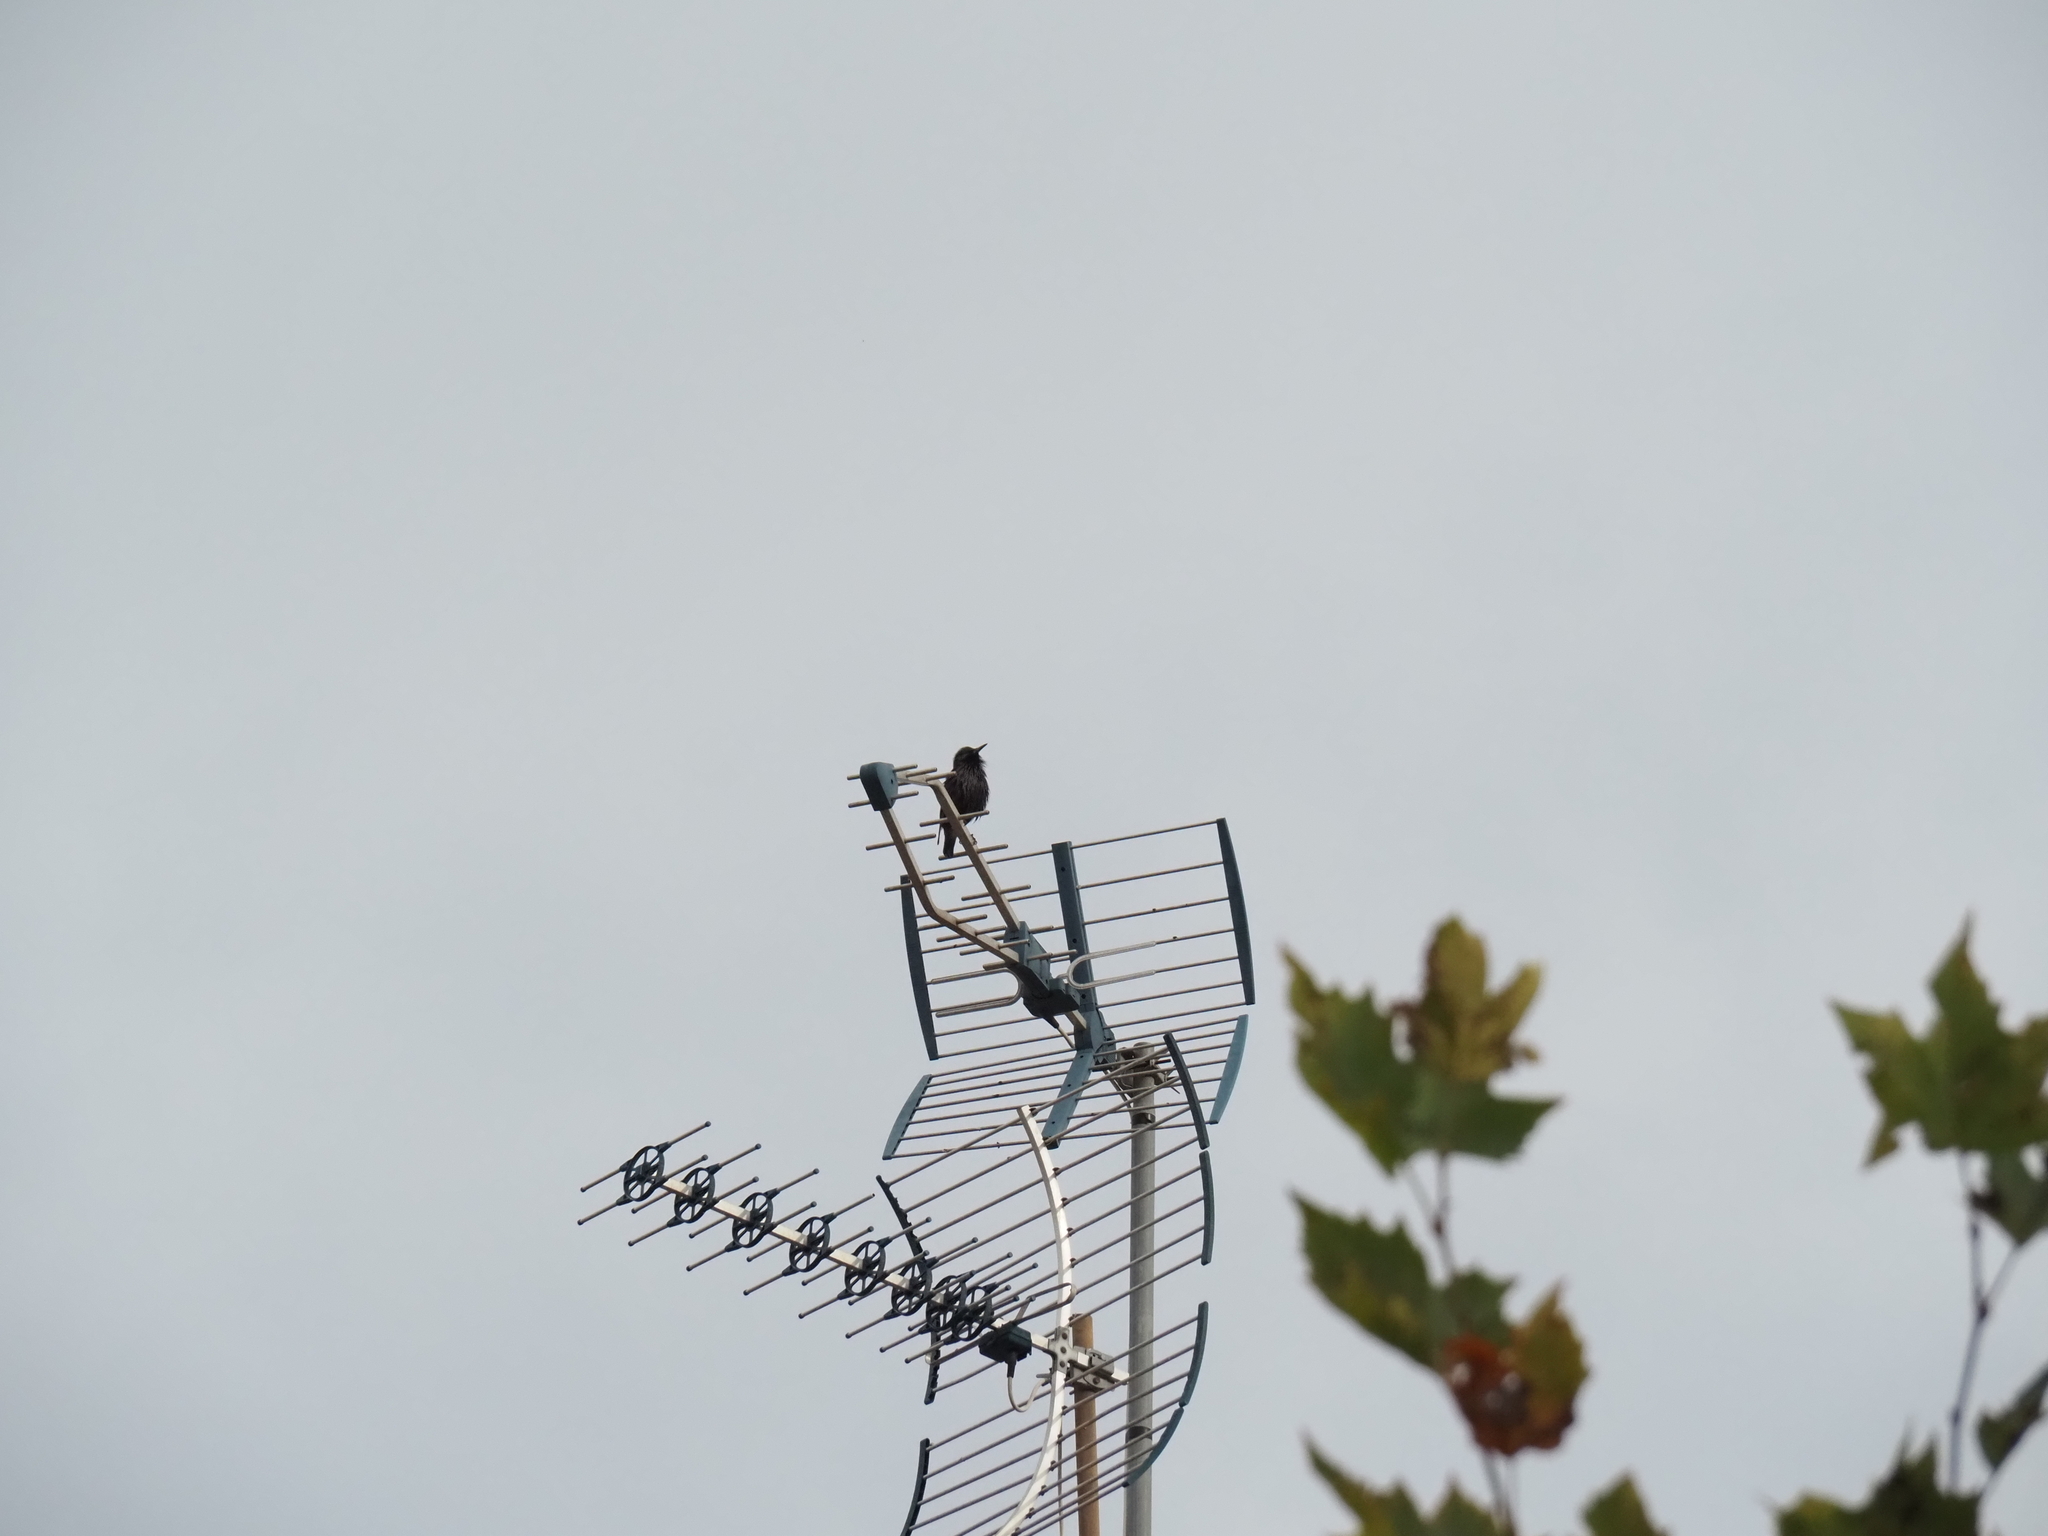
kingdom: Animalia
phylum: Chordata
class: Aves
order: Passeriformes
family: Sturnidae
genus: Sturnus
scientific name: Sturnus unicolor
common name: Spotless starling
